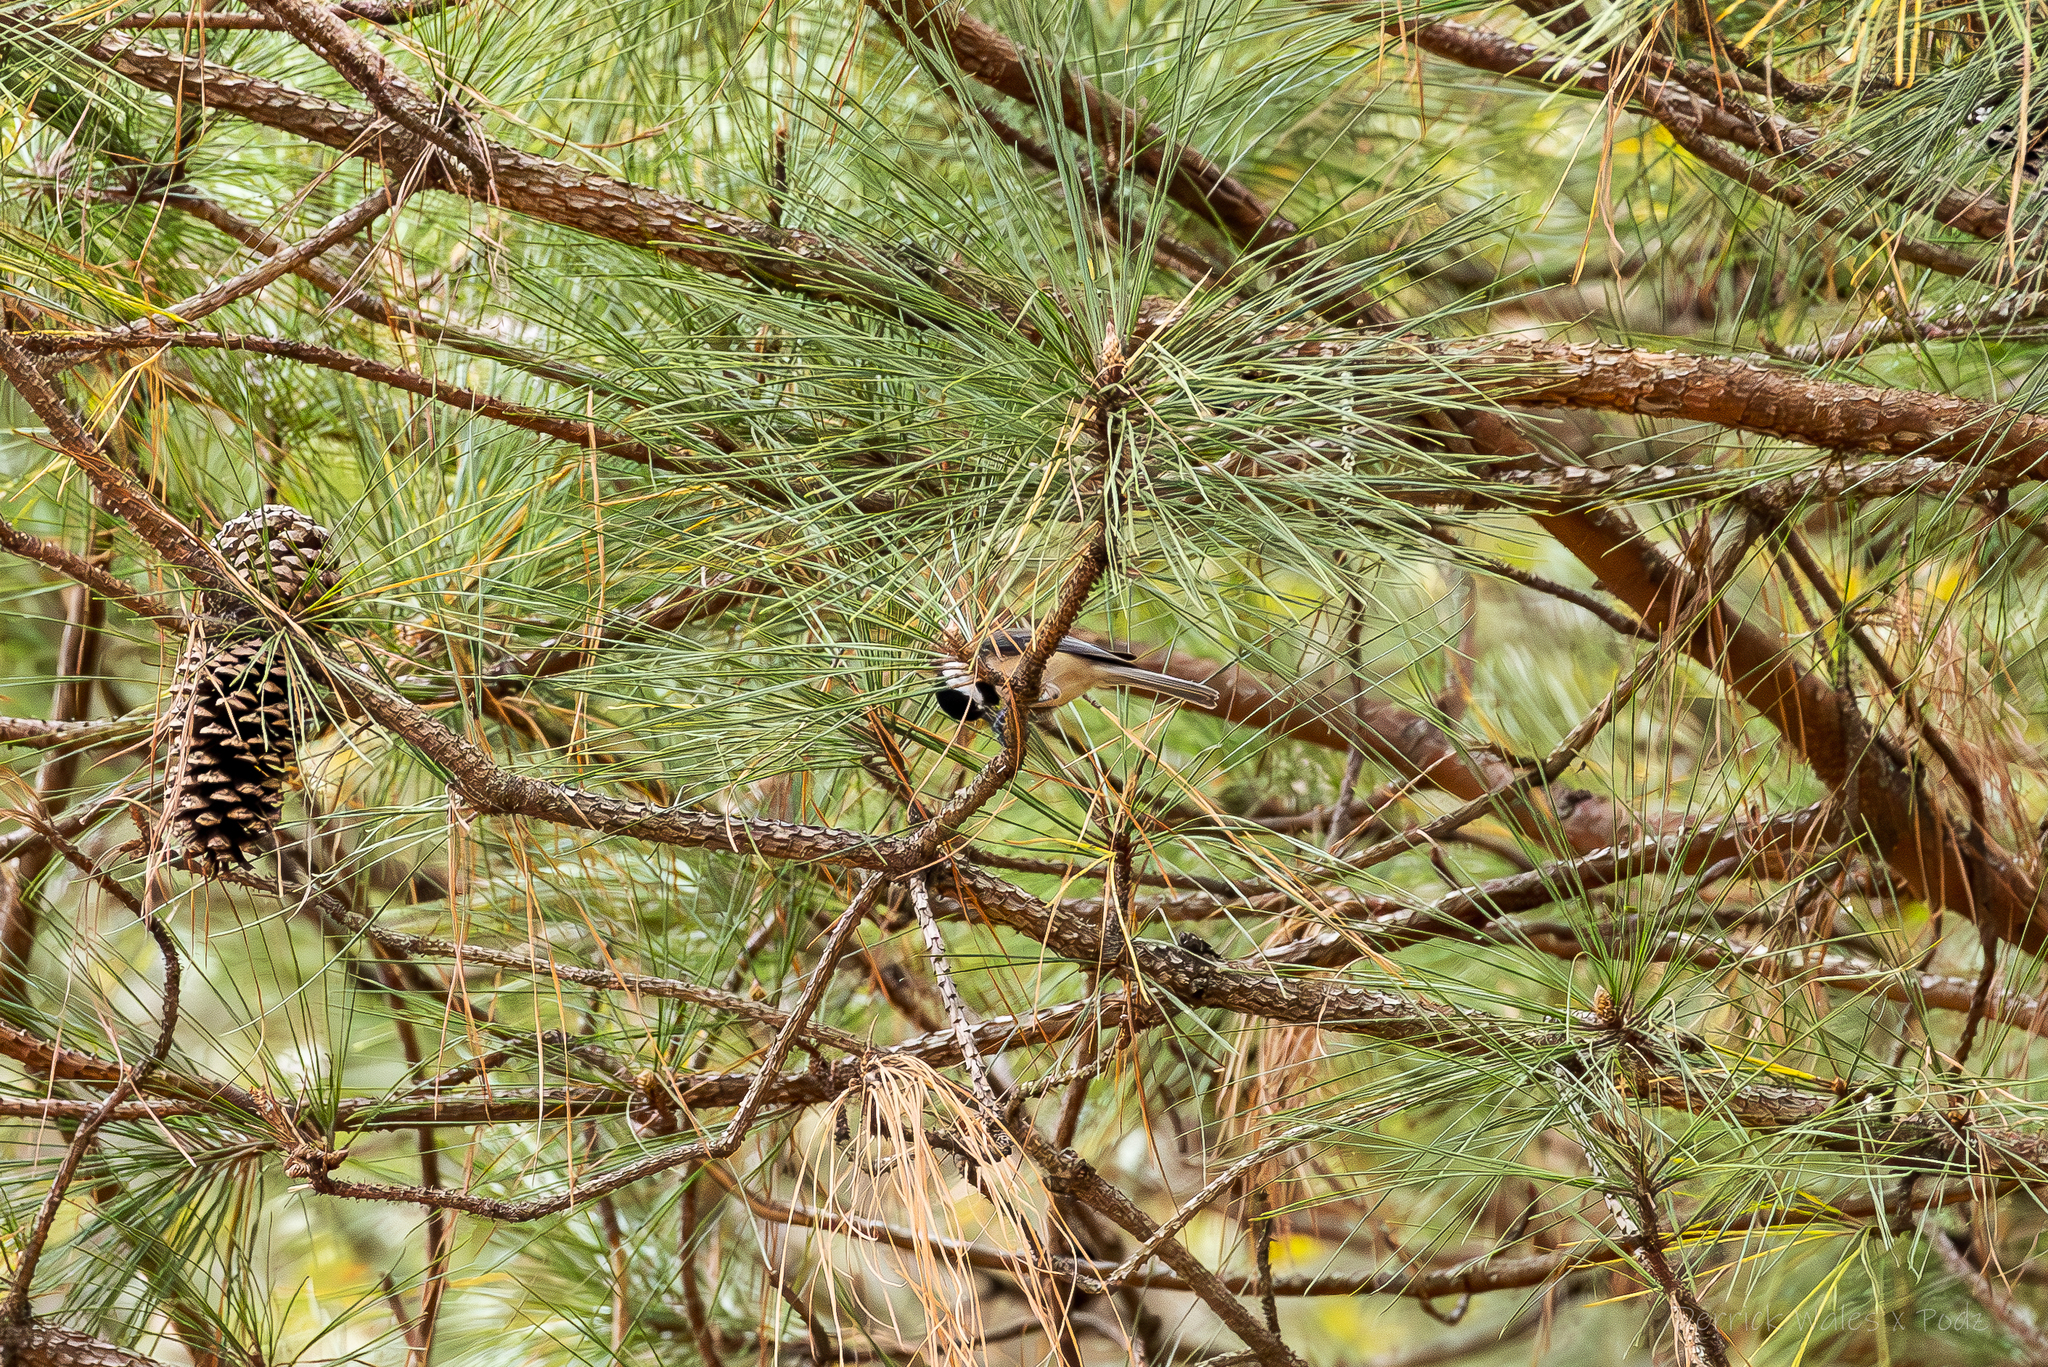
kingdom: Animalia
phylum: Chordata
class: Aves
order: Passeriformes
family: Paridae
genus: Poecile
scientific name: Poecile carolinensis
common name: Carolina chickadee
